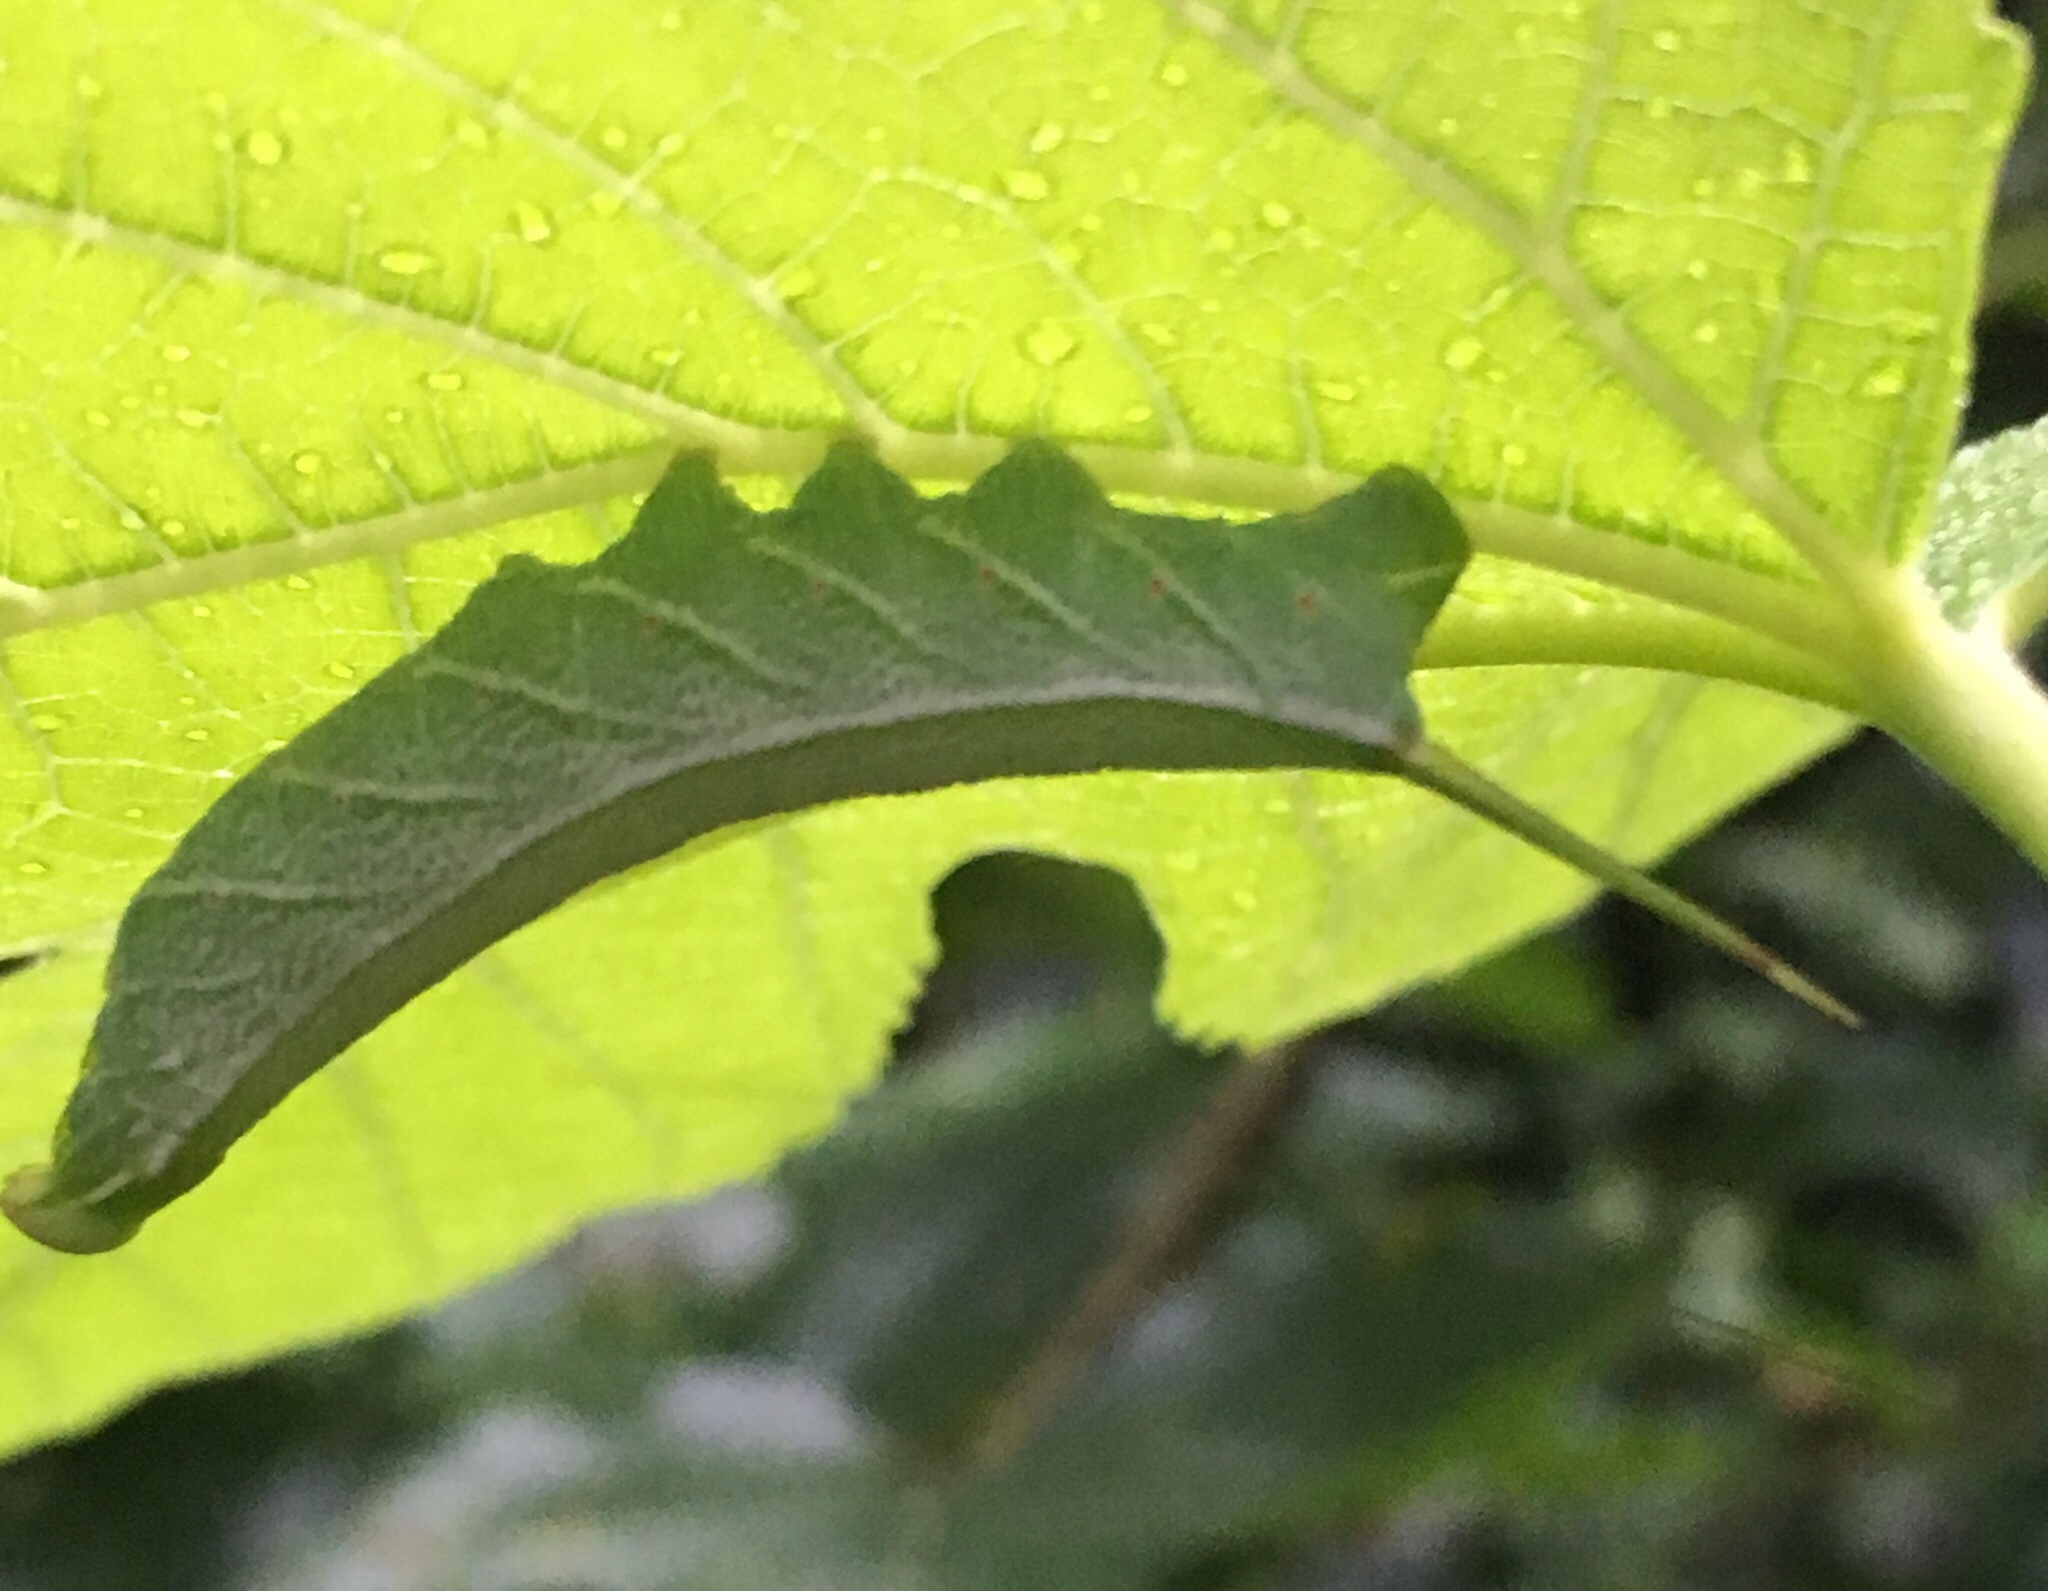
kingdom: Animalia
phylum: Arthropoda
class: Insecta
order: Lepidoptera
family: Sphingidae
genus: Enyo
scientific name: Enyo lugubris
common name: Mournful sphinx
